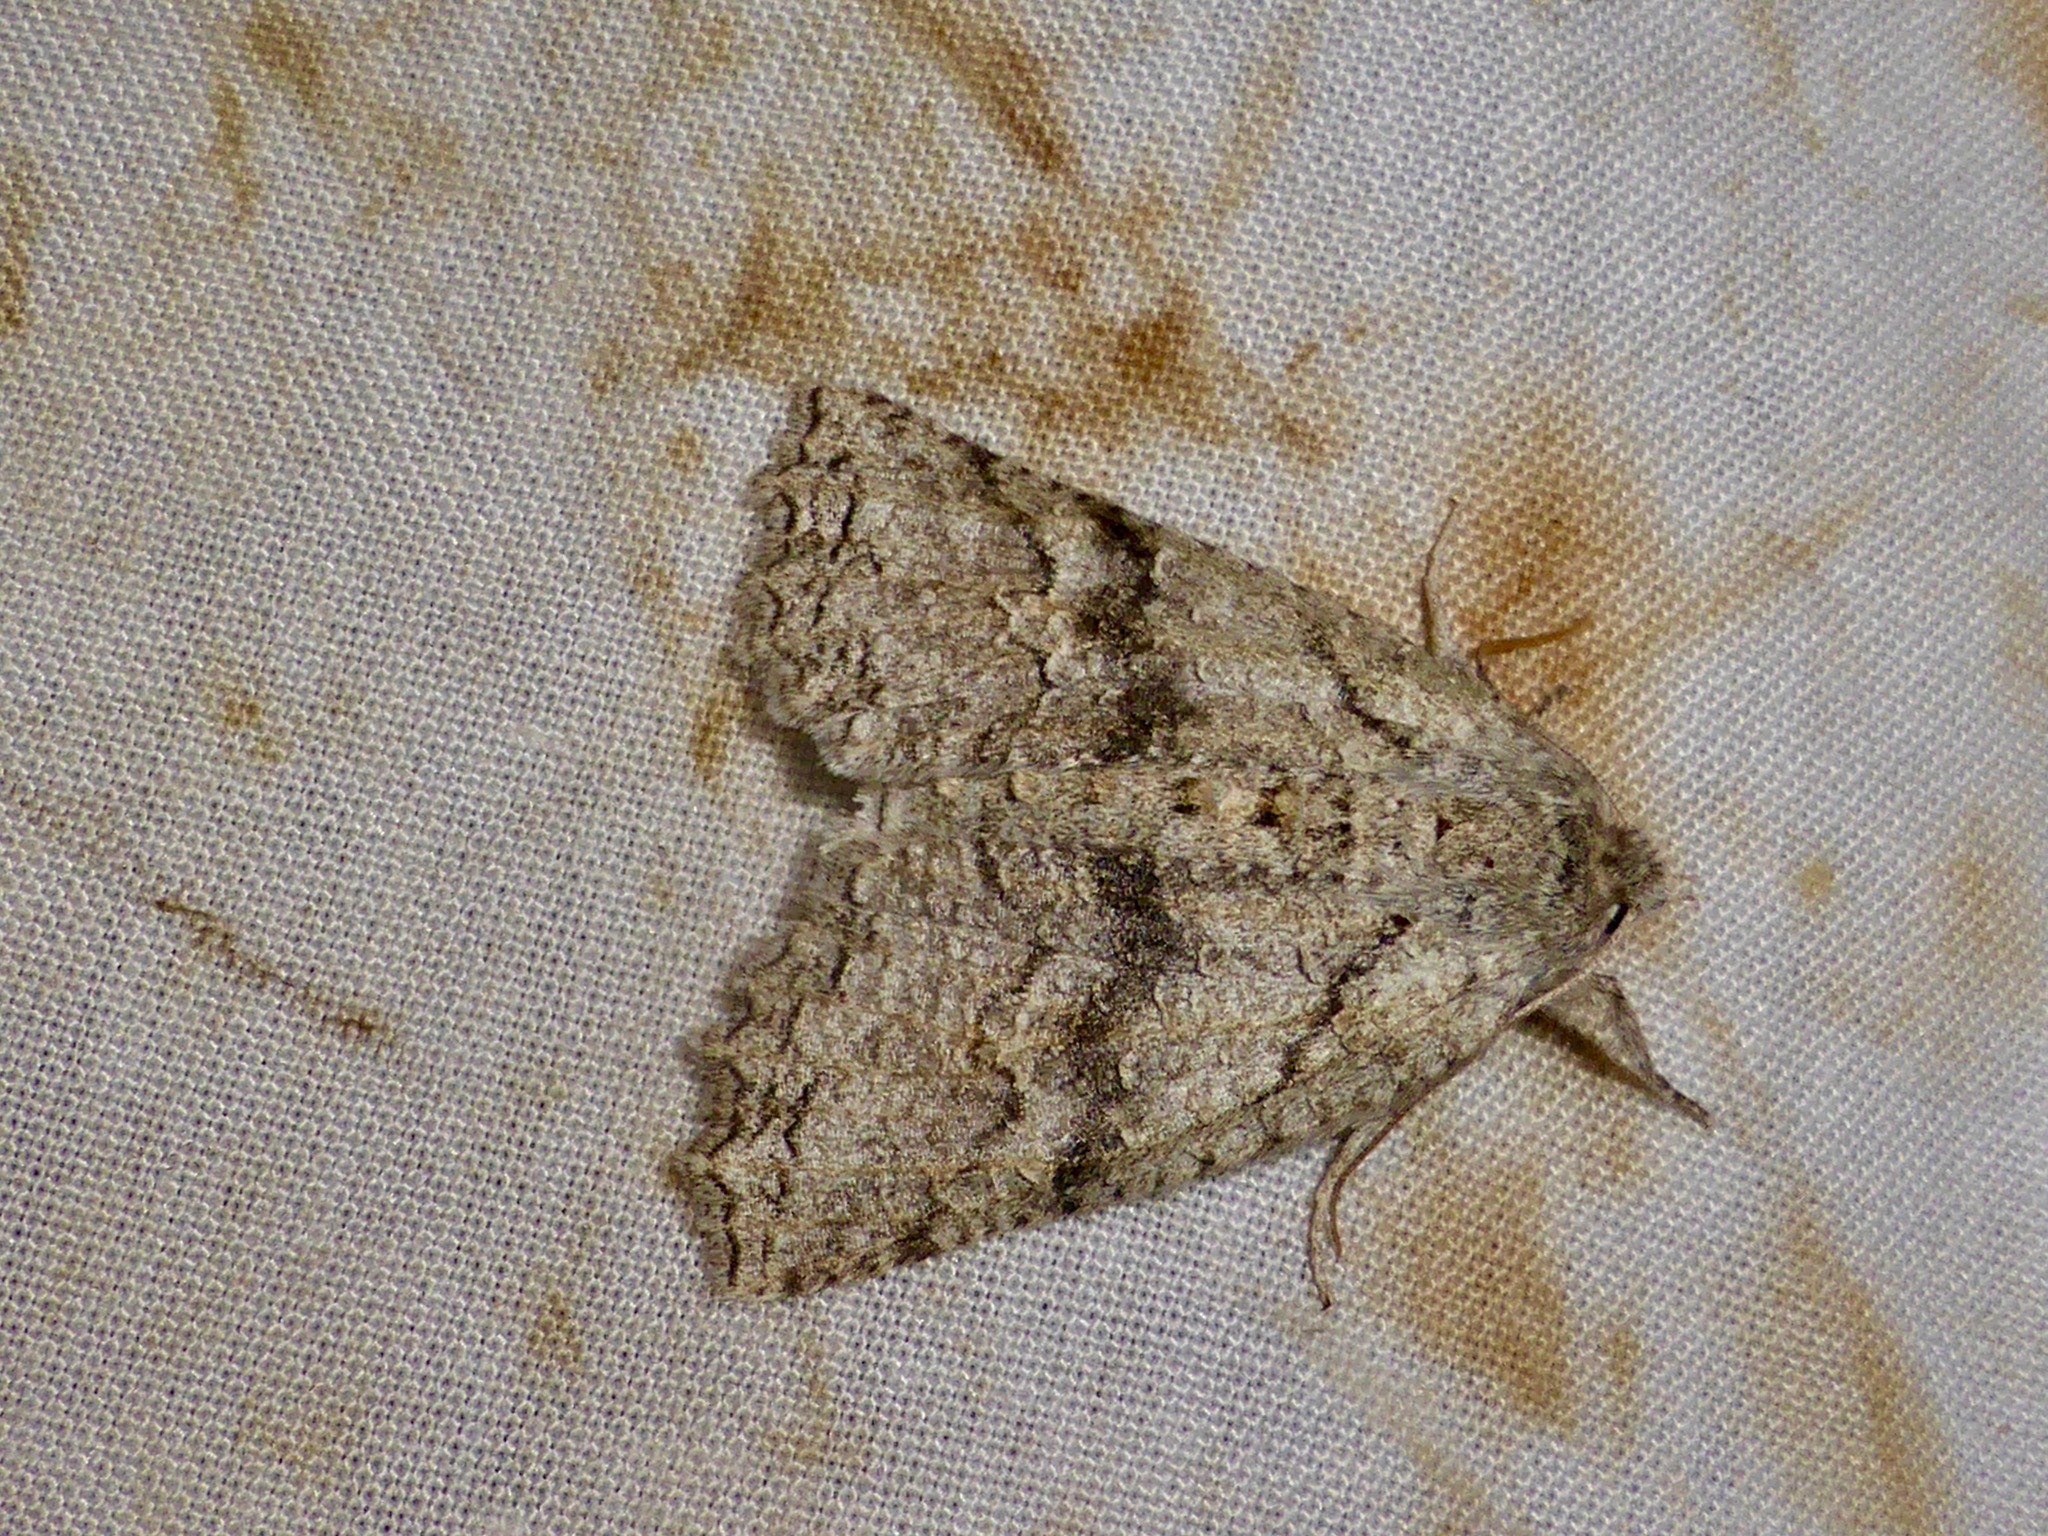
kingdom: Animalia
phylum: Arthropoda
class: Insecta
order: Lepidoptera
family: Geometridae
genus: Declana
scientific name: Declana niveata
